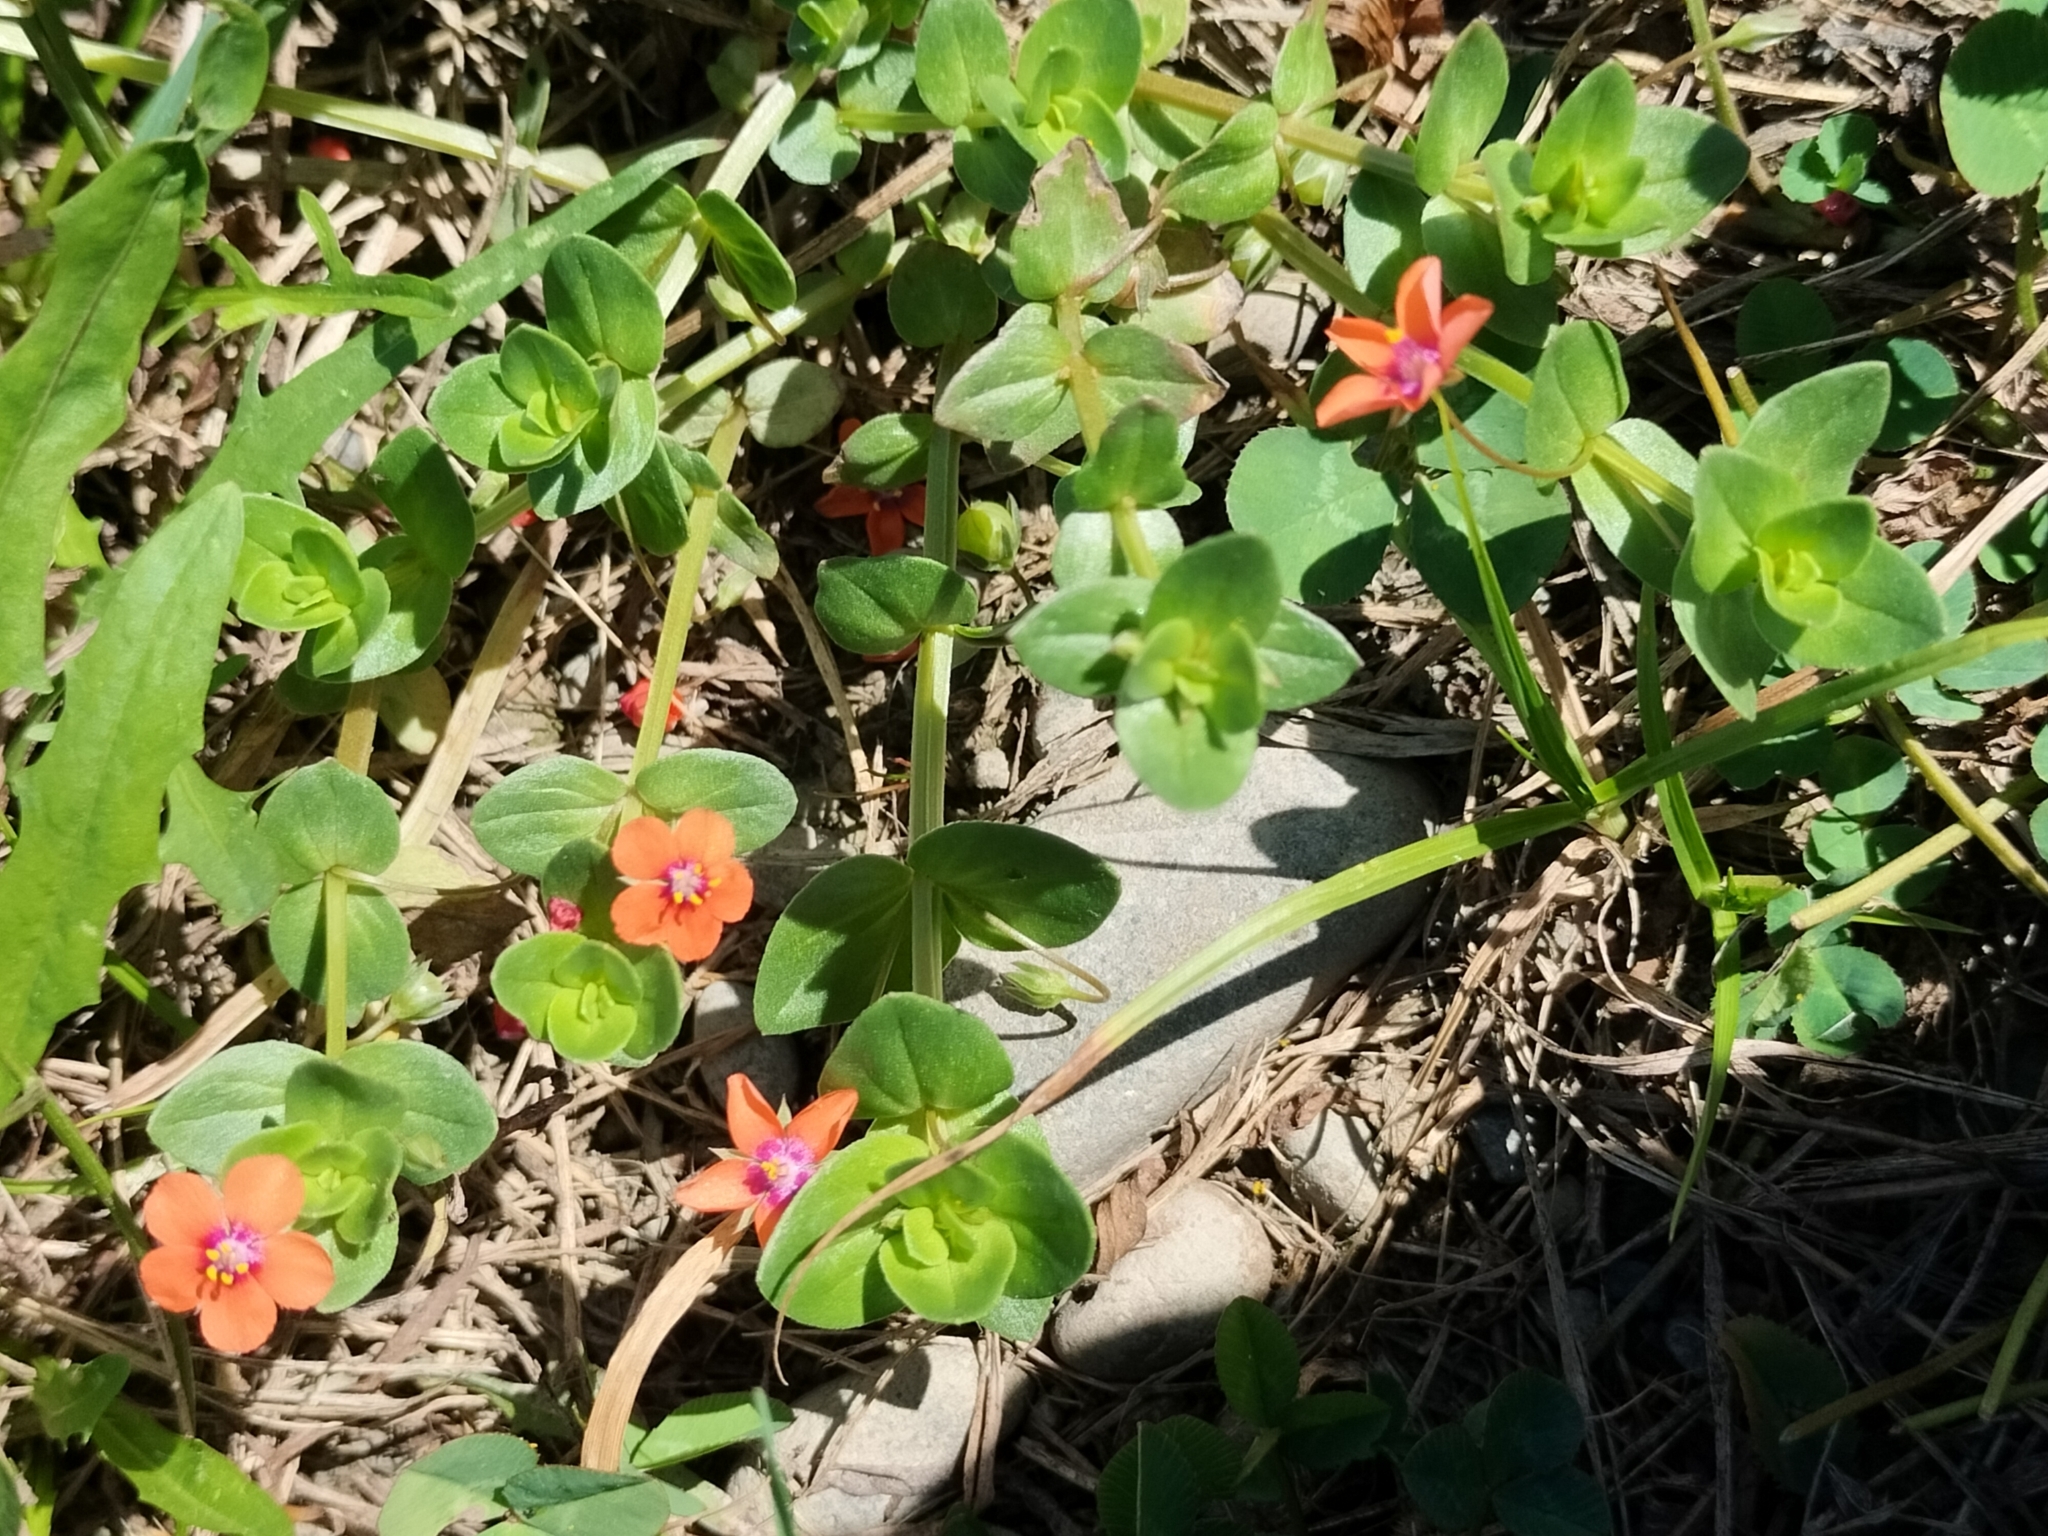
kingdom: Plantae
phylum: Tracheophyta
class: Magnoliopsida
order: Ericales
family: Primulaceae
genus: Lysimachia
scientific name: Lysimachia arvensis
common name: Scarlet pimpernel
